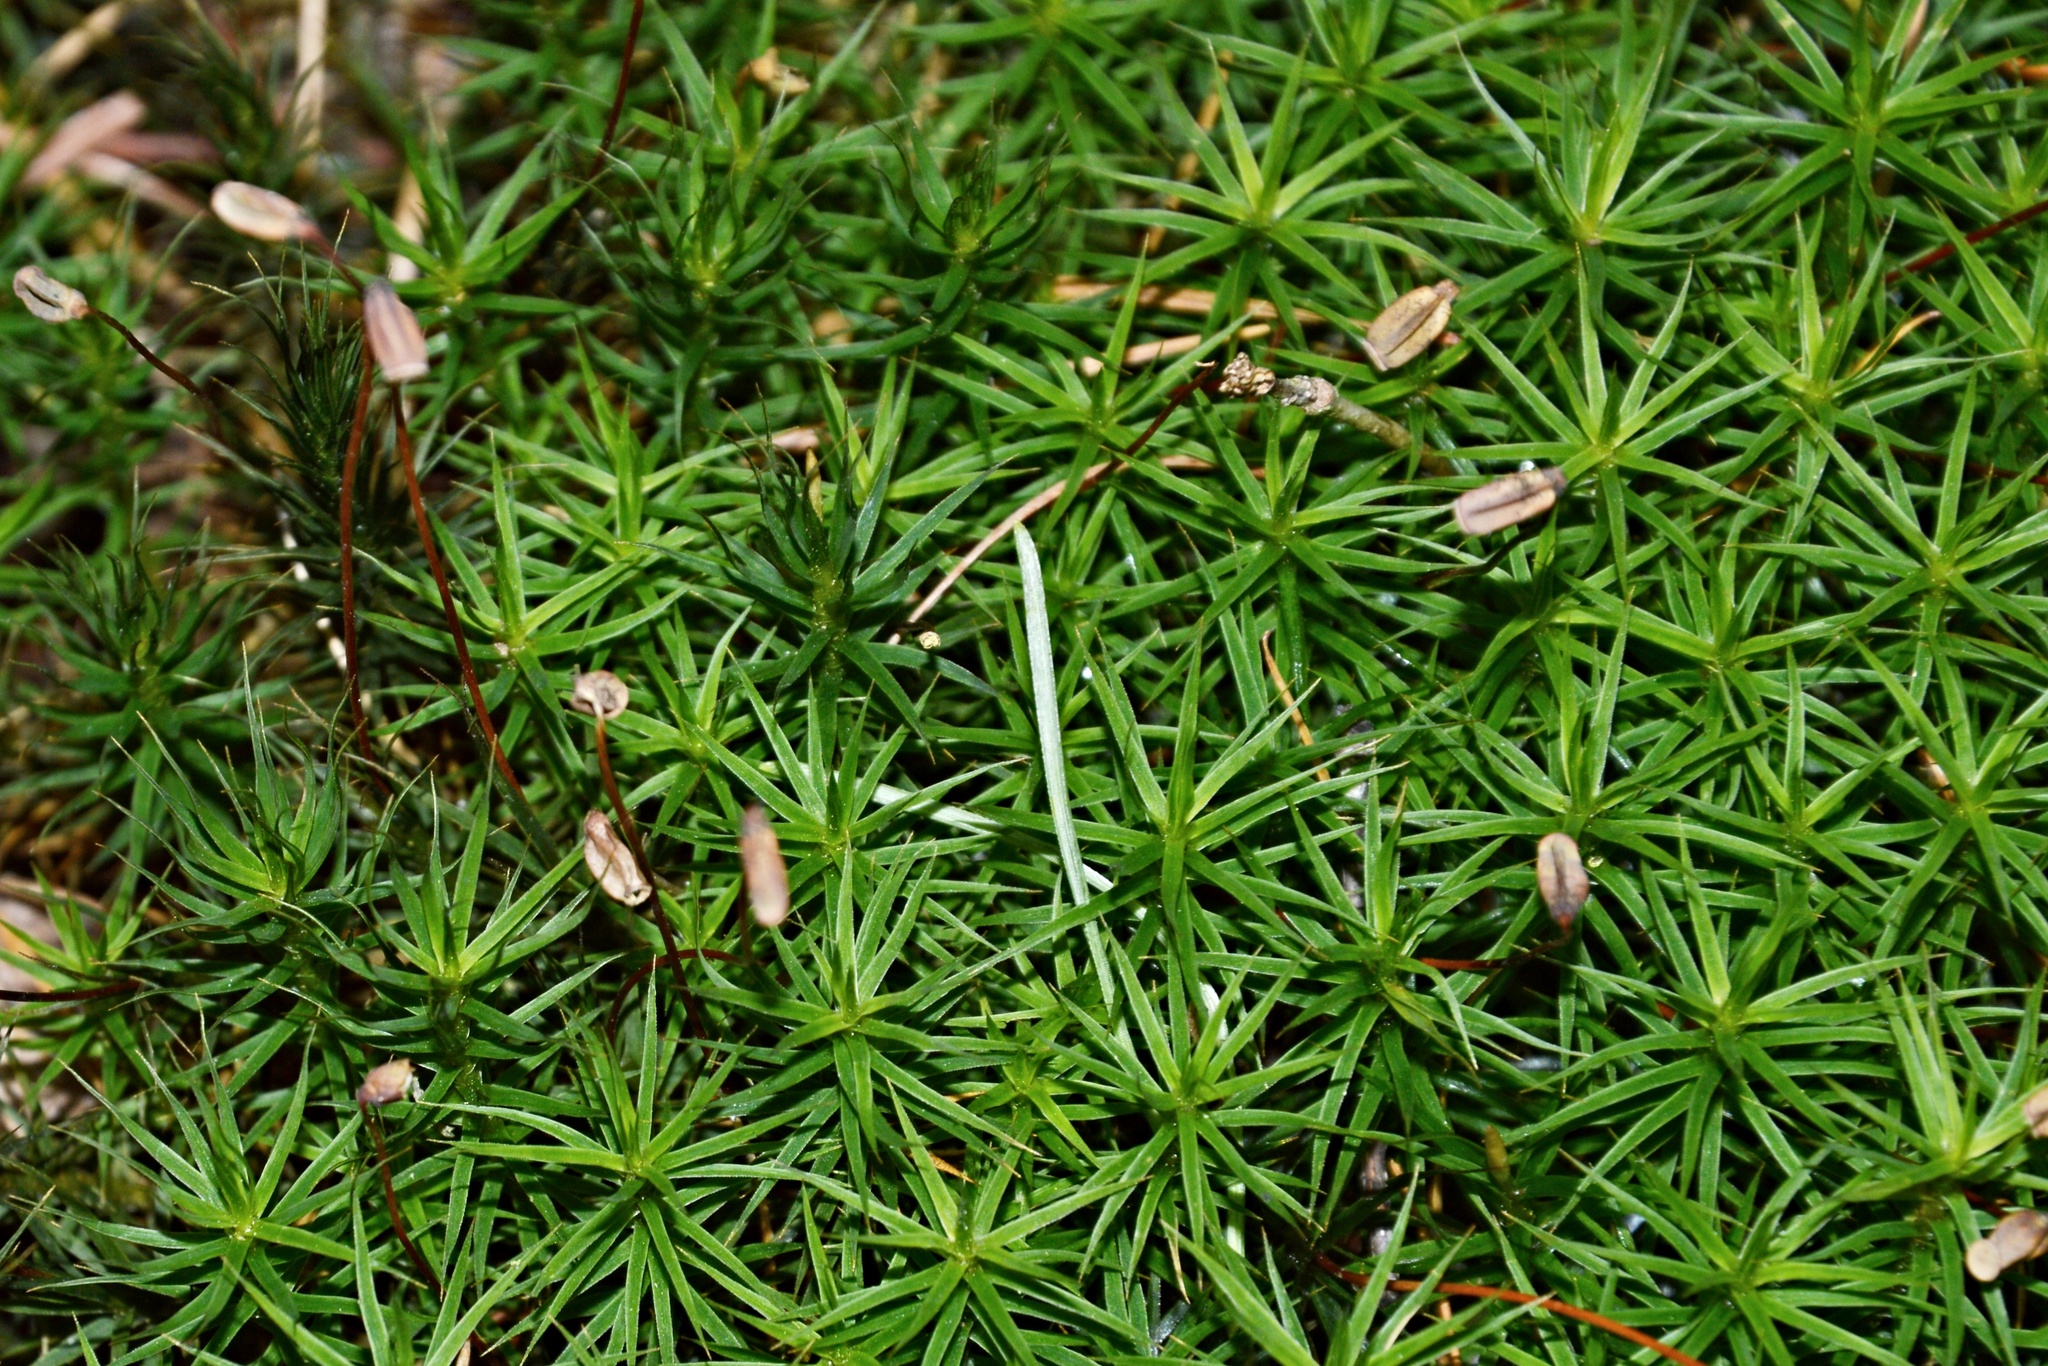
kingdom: Plantae
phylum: Bryophyta
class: Polytrichopsida
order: Polytrichales
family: Polytrichaceae
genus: Polytrichum
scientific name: Polytrichum formosum
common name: Bank haircap moss
